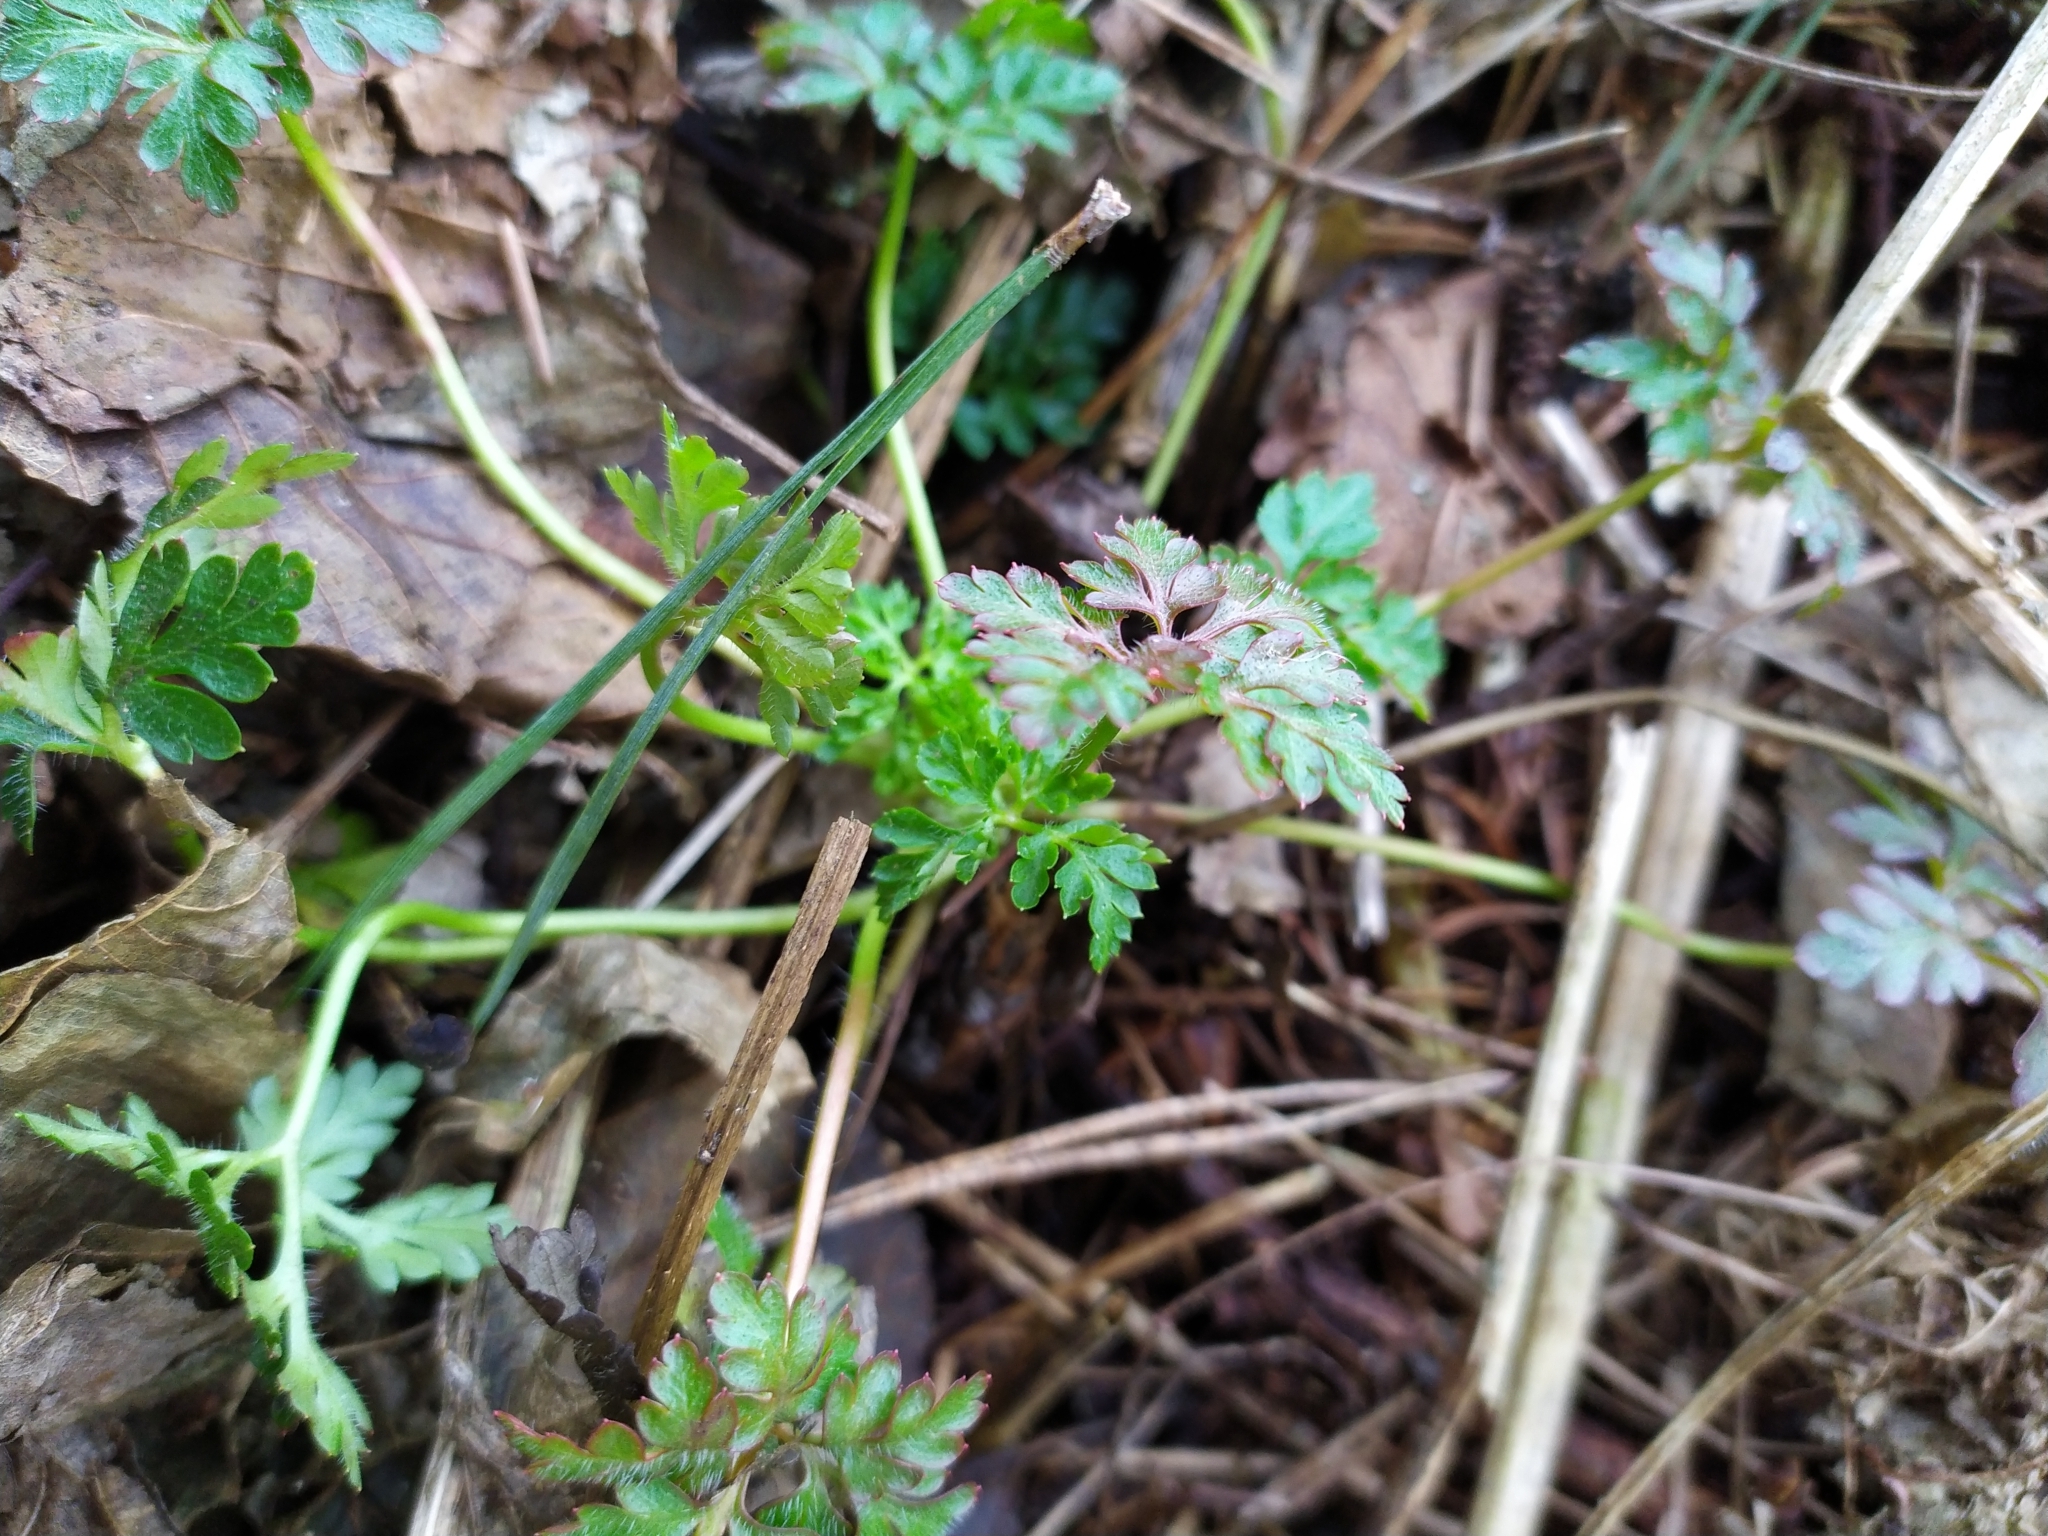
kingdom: Plantae
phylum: Tracheophyta
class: Magnoliopsida
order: Geraniales
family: Geraniaceae
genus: Geranium
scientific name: Geranium robertianum
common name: Herb-robert
